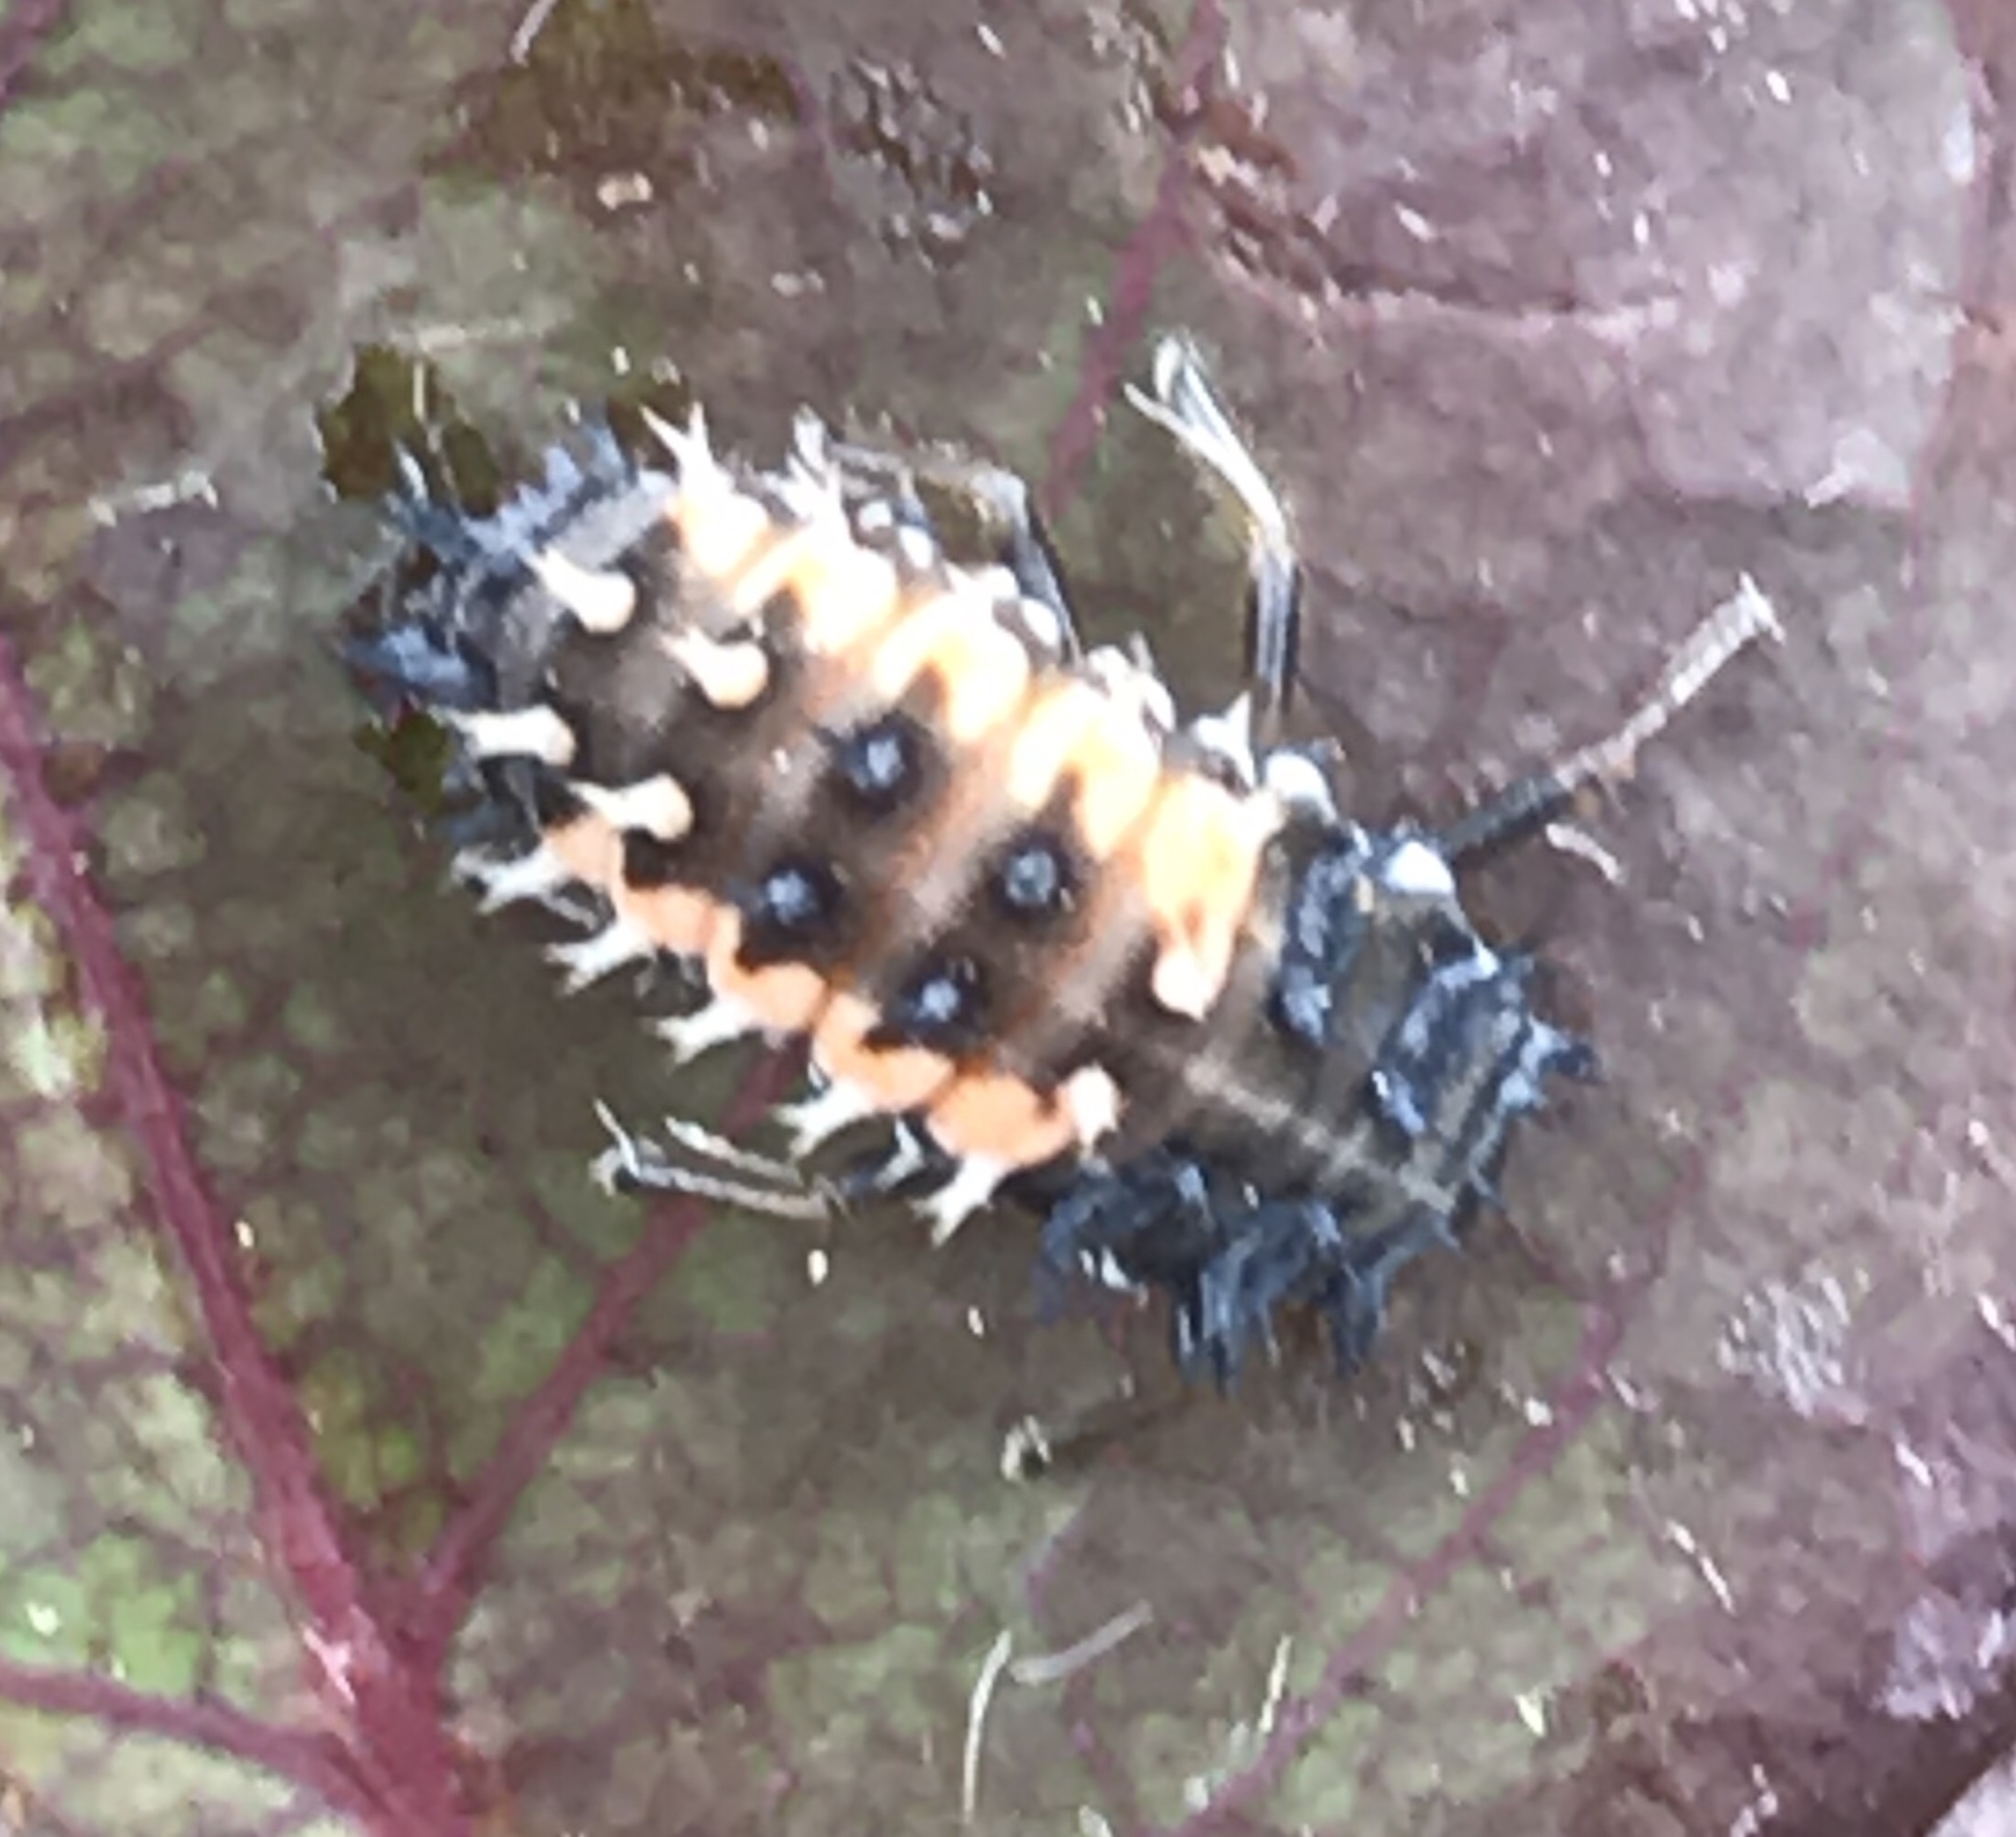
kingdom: Animalia
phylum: Arthropoda
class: Insecta
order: Coleoptera
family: Coccinellidae
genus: Harmonia
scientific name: Harmonia axyridis
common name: Harlequin ladybird
